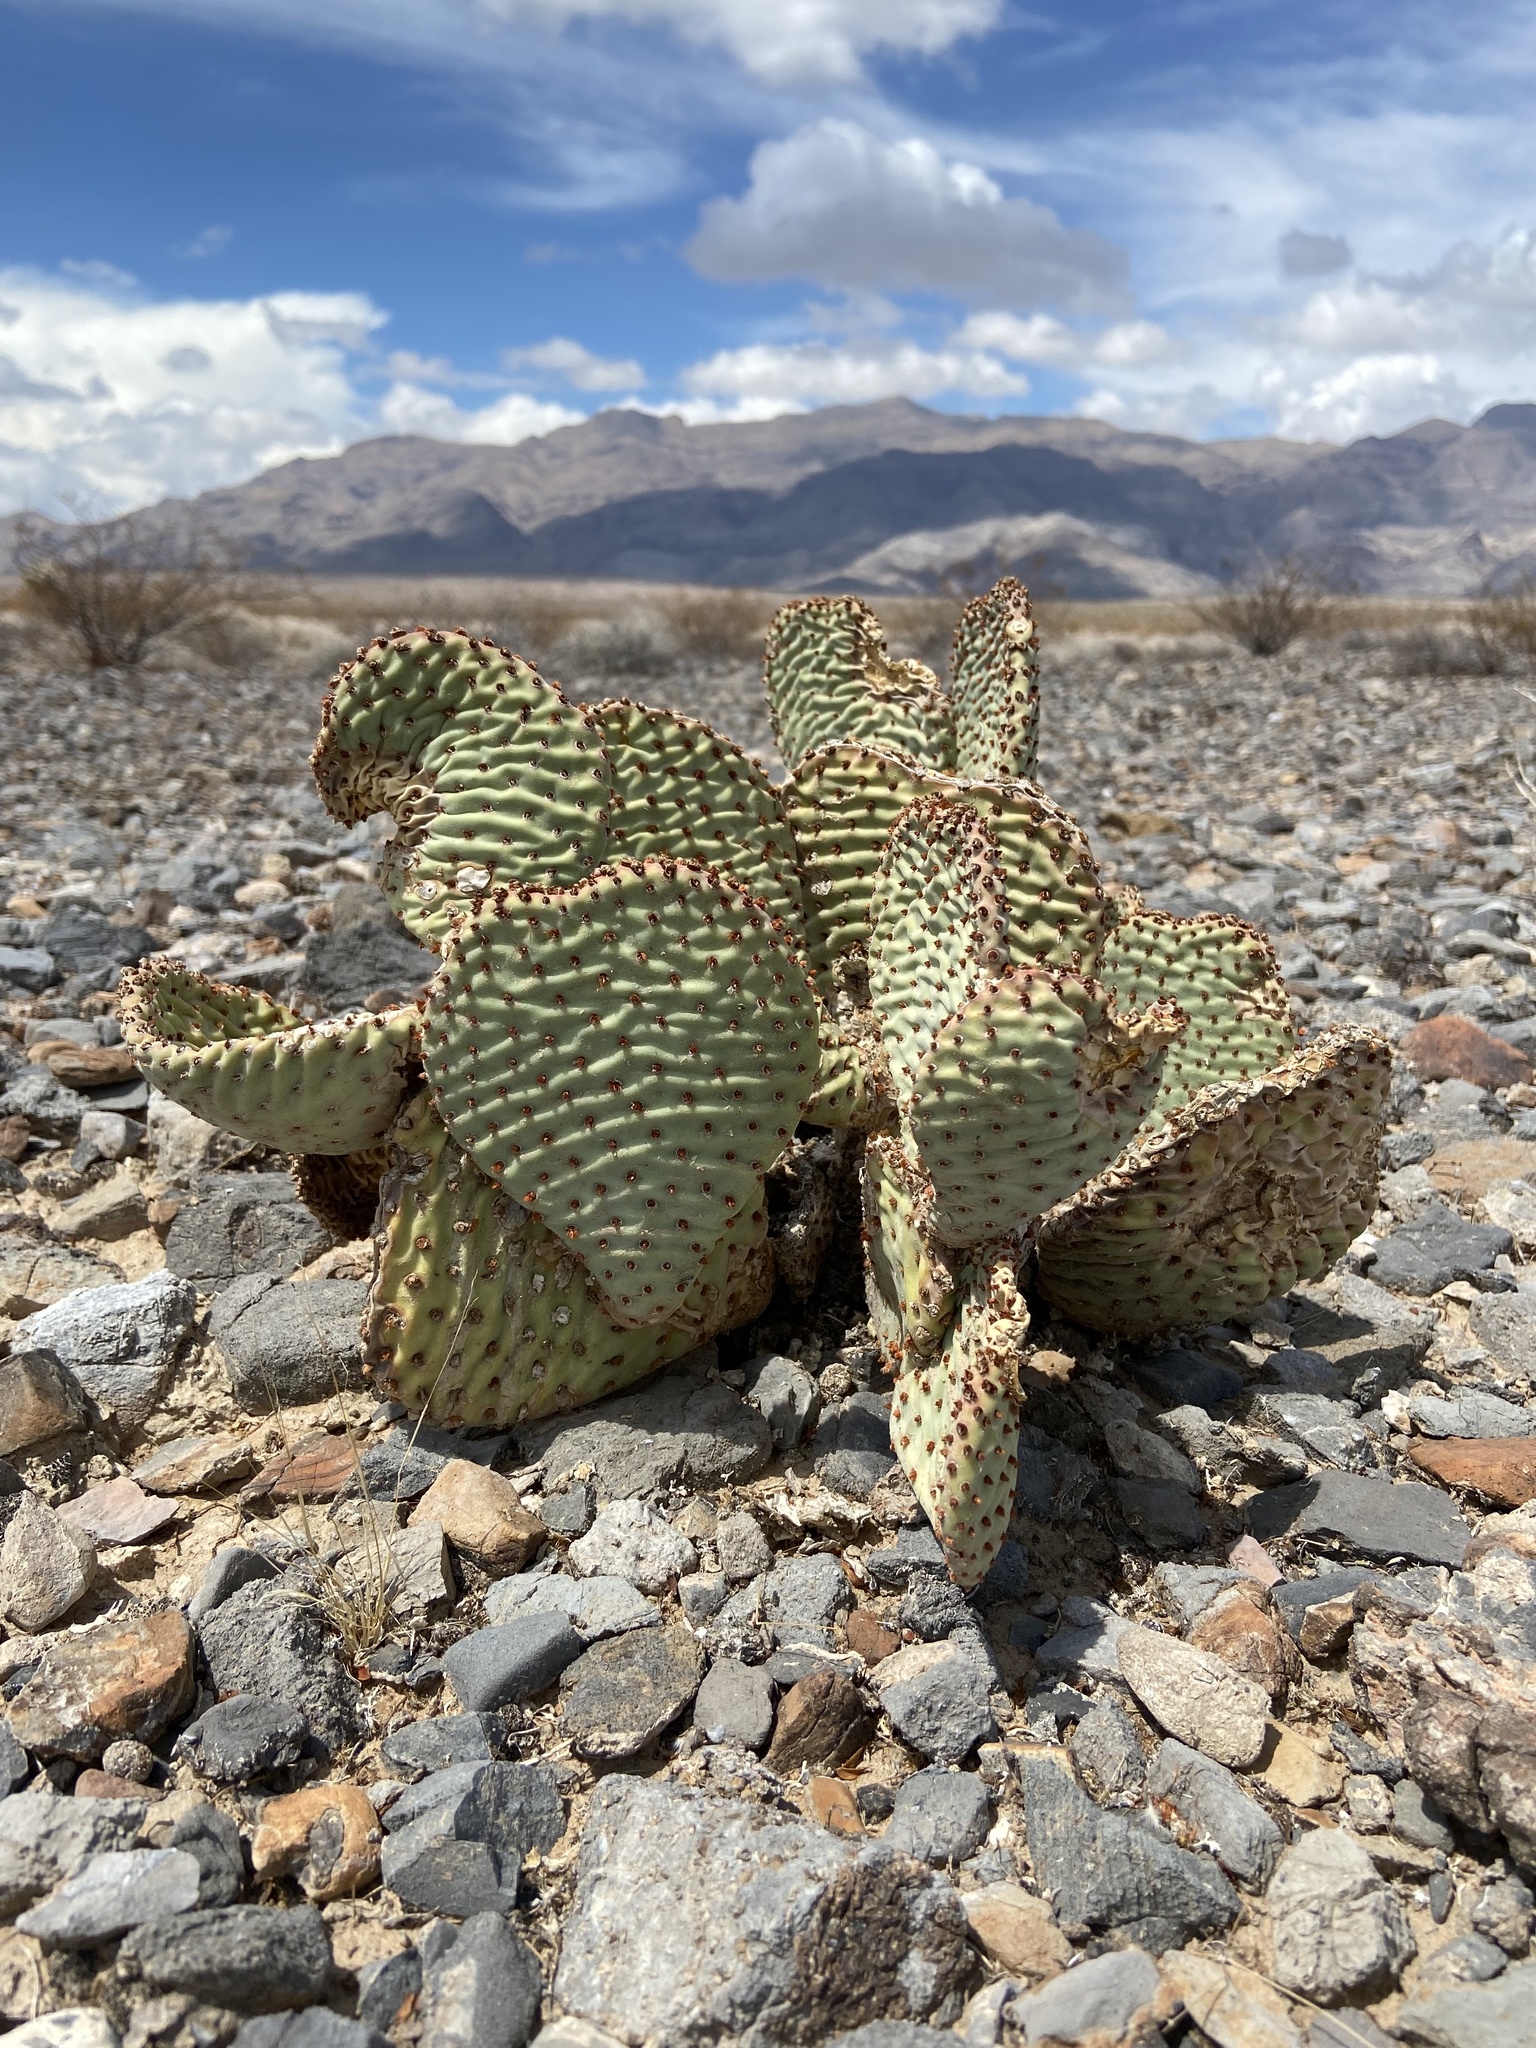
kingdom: Plantae
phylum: Tracheophyta
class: Magnoliopsida
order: Caryophyllales
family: Cactaceae
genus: Opuntia
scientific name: Opuntia basilaris
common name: Beavertail prickly-pear
